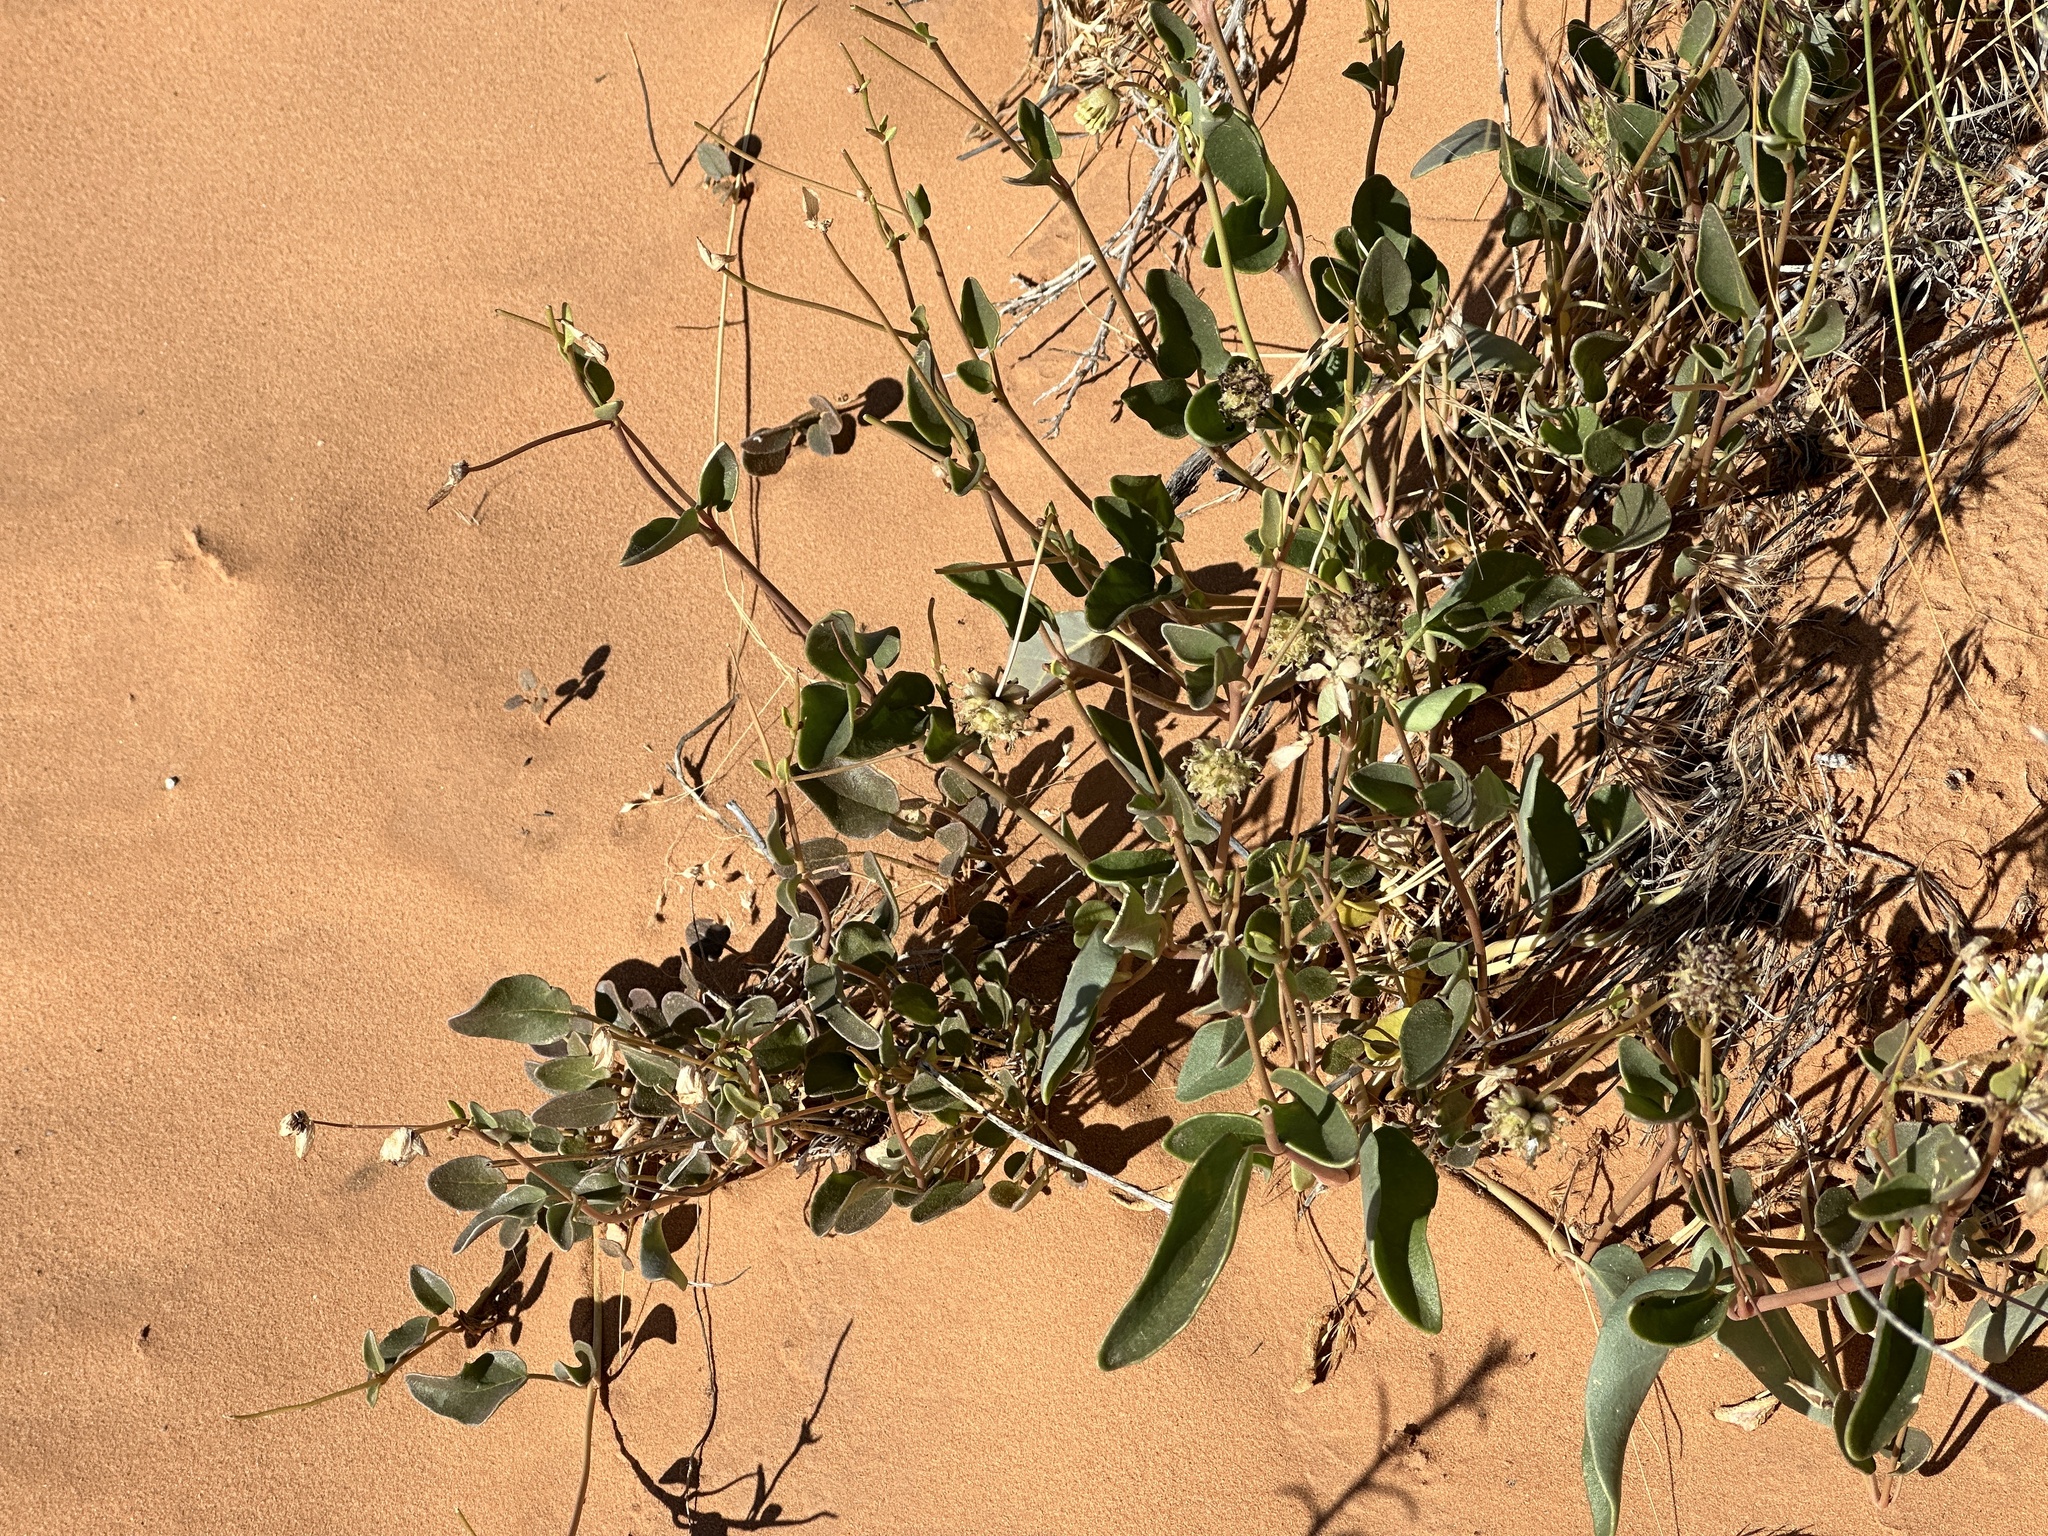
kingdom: Plantae
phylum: Tracheophyta
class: Magnoliopsida
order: Caryophyllales
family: Nyctaginaceae
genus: Abronia
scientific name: Abronia elliptica
